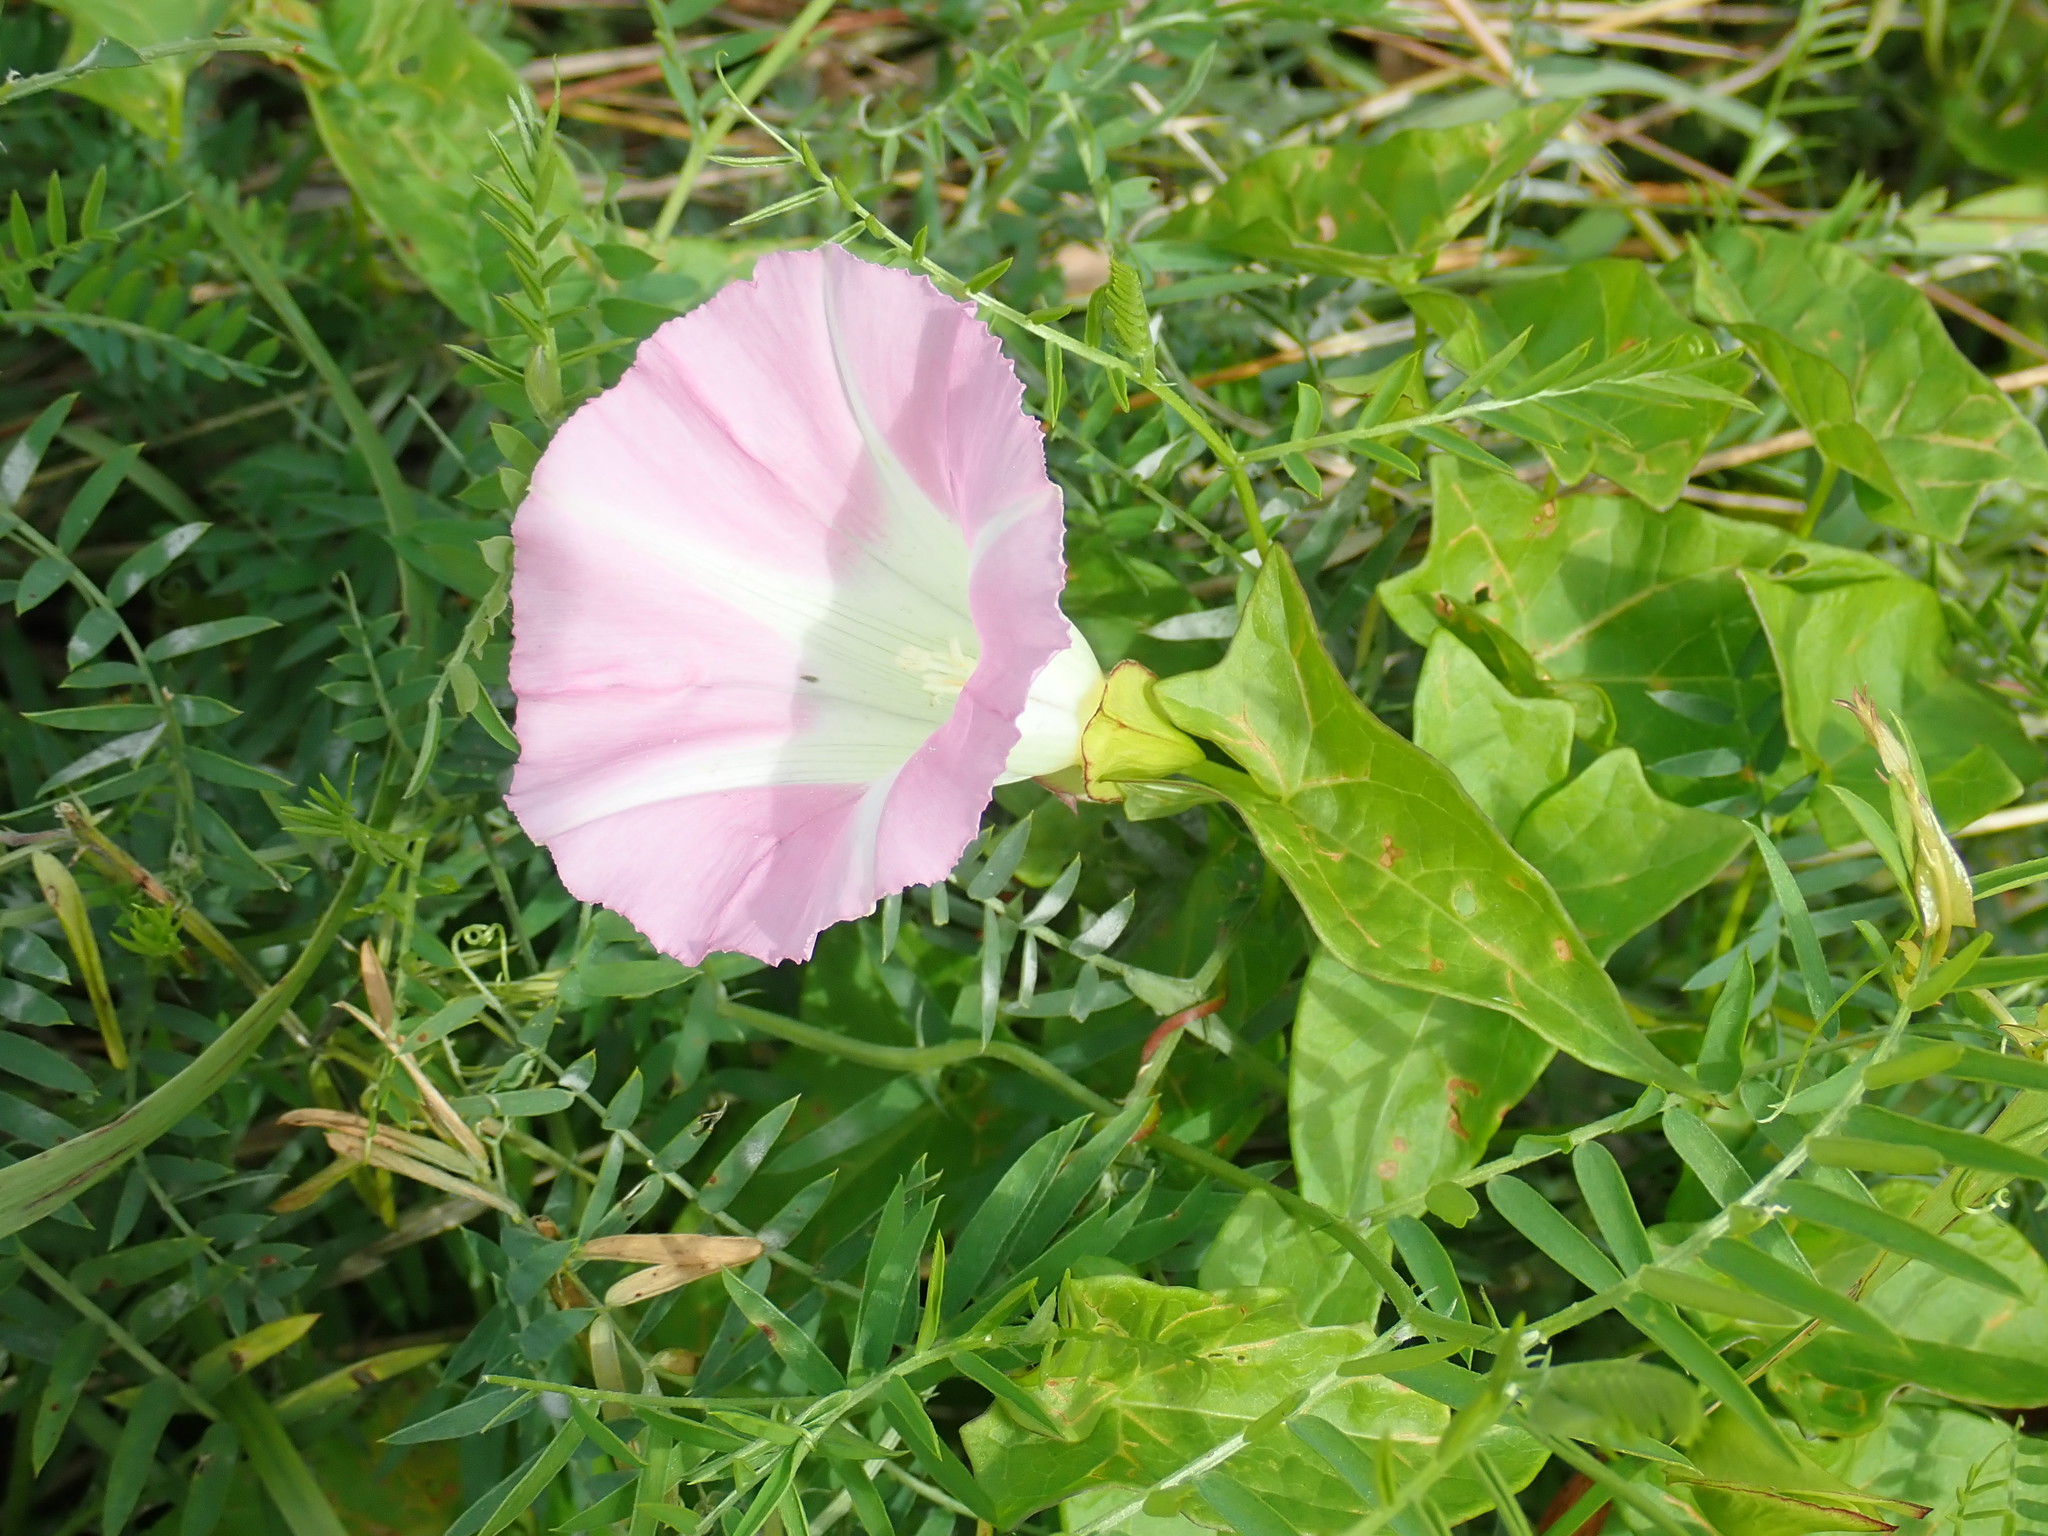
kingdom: Plantae
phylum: Tracheophyta
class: Magnoliopsida
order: Solanales
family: Convolvulaceae
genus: Calystegia
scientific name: Calystegia sepium
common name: Hedge bindweed
